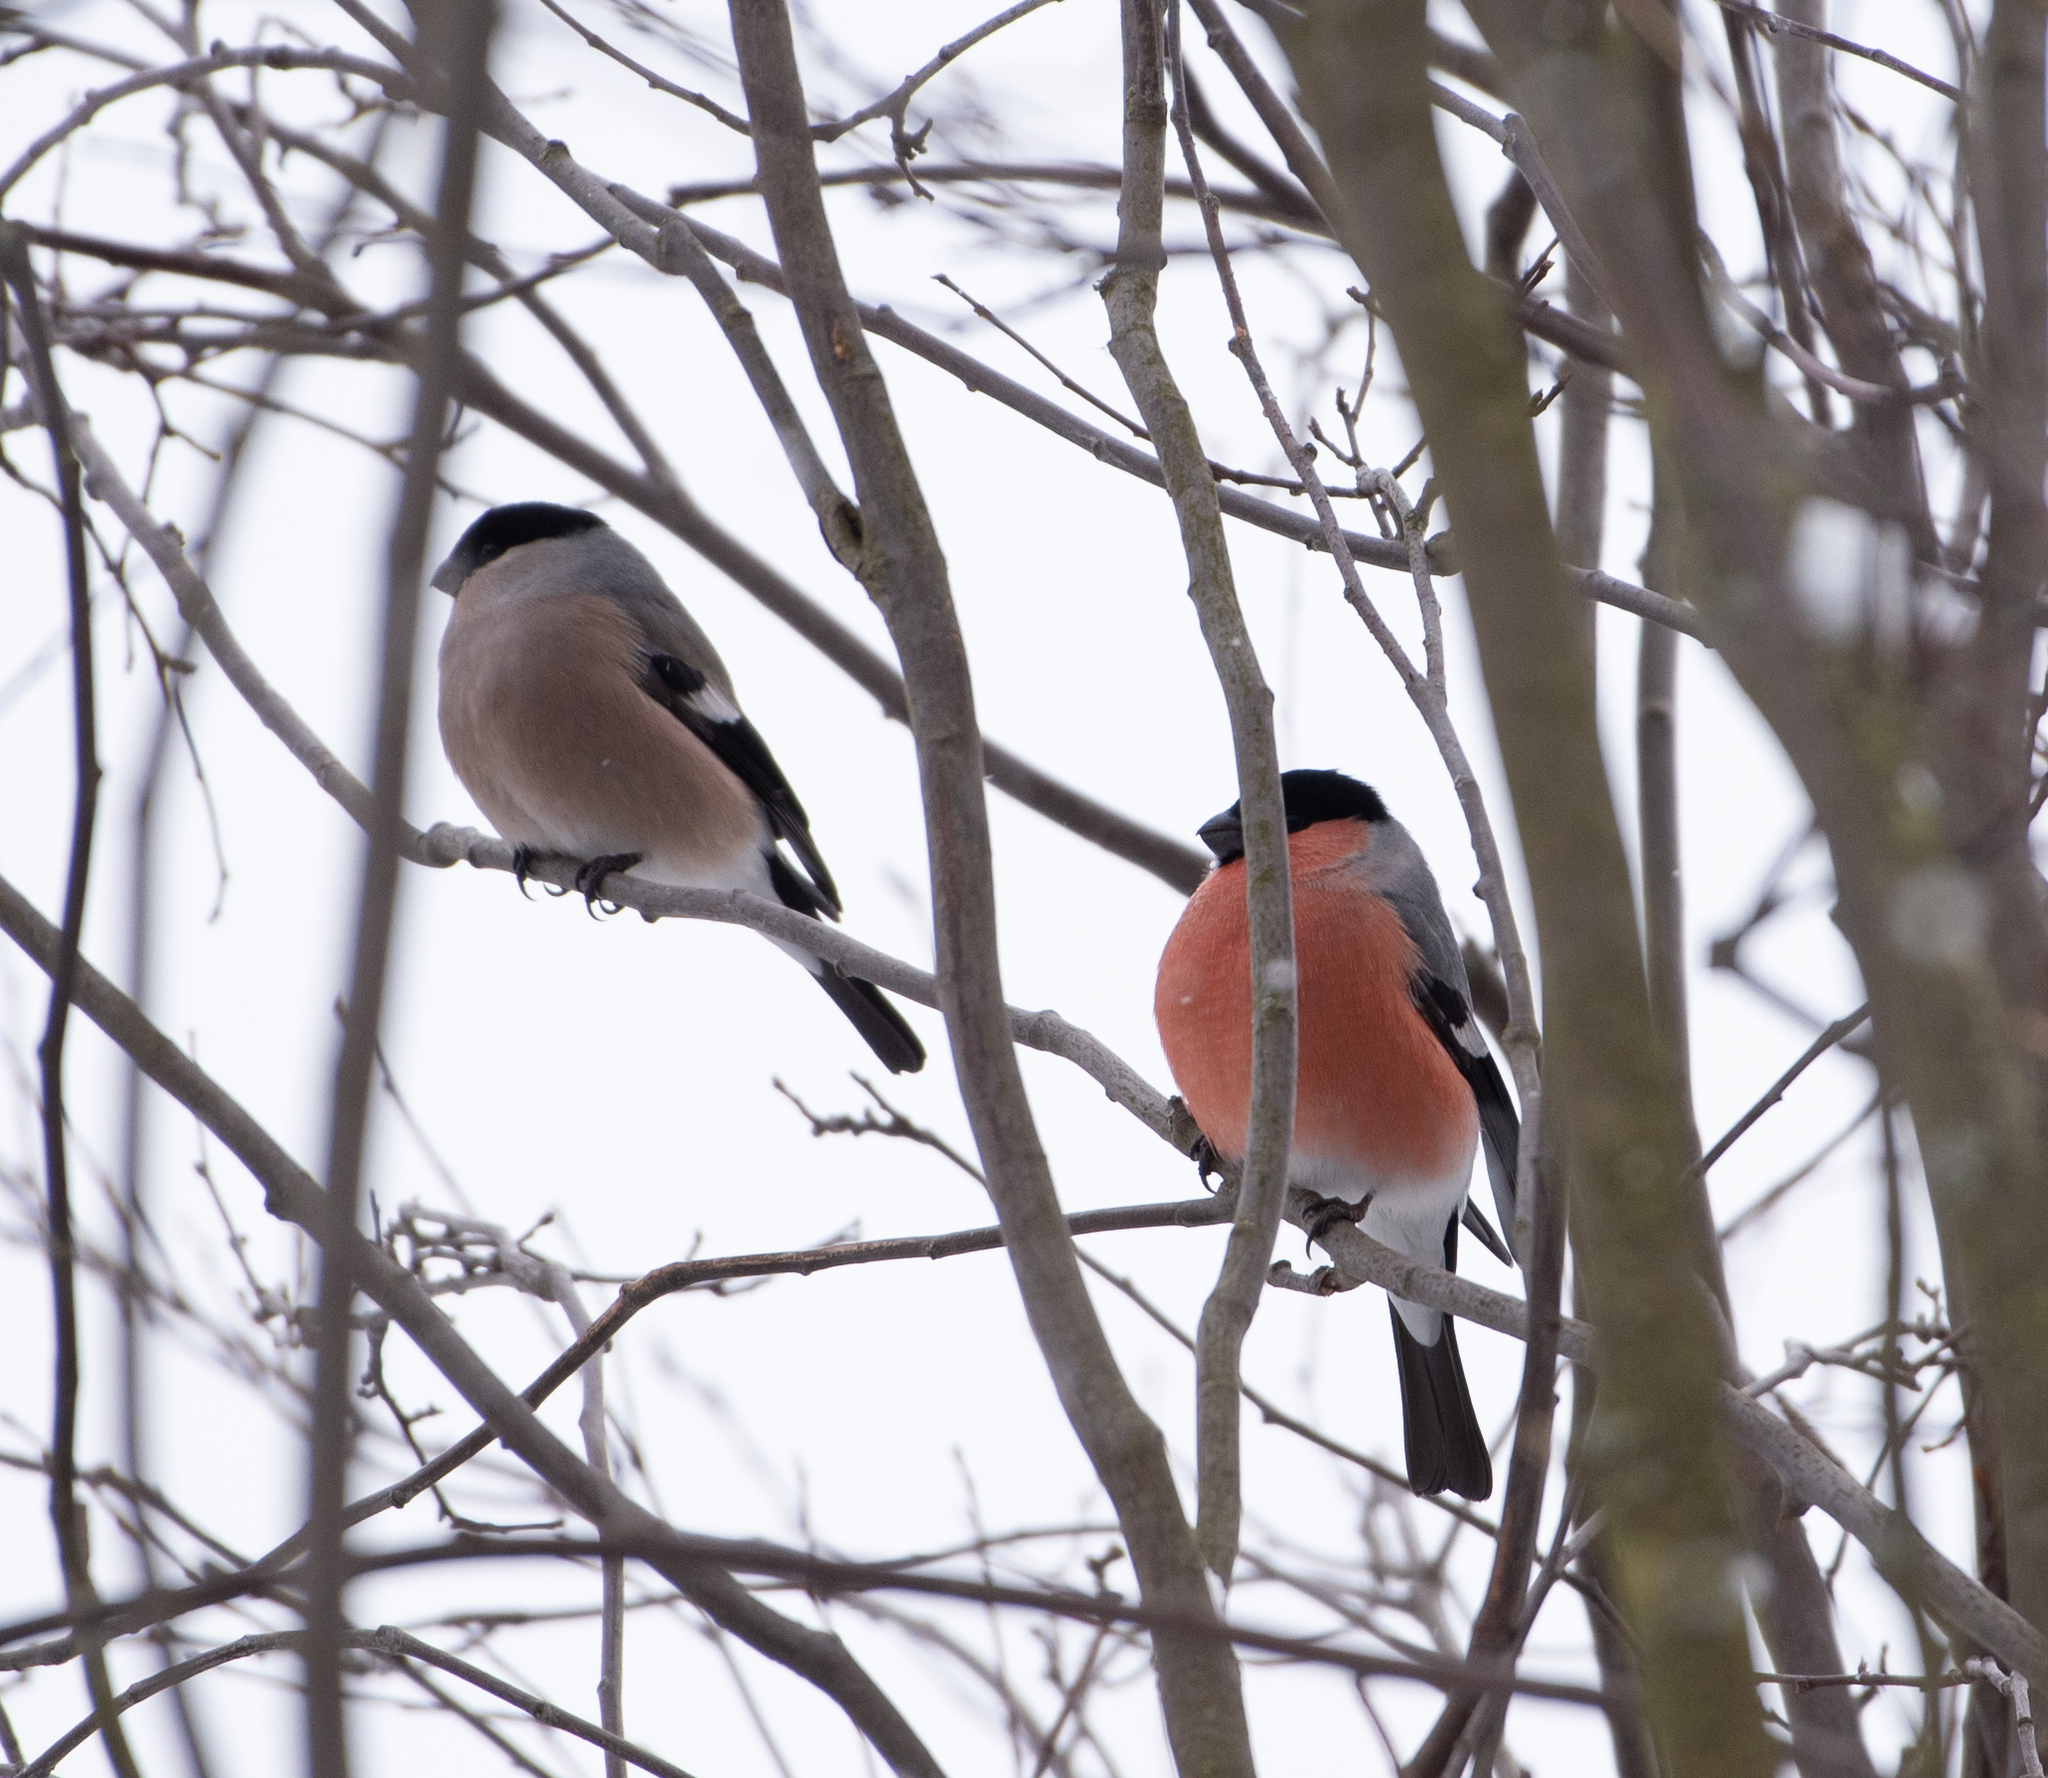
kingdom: Animalia
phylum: Chordata
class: Aves
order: Passeriformes
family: Fringillidae
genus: Pyrrhula
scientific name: Pyrrhula pyrrhula
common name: Eurasian bullfinch
